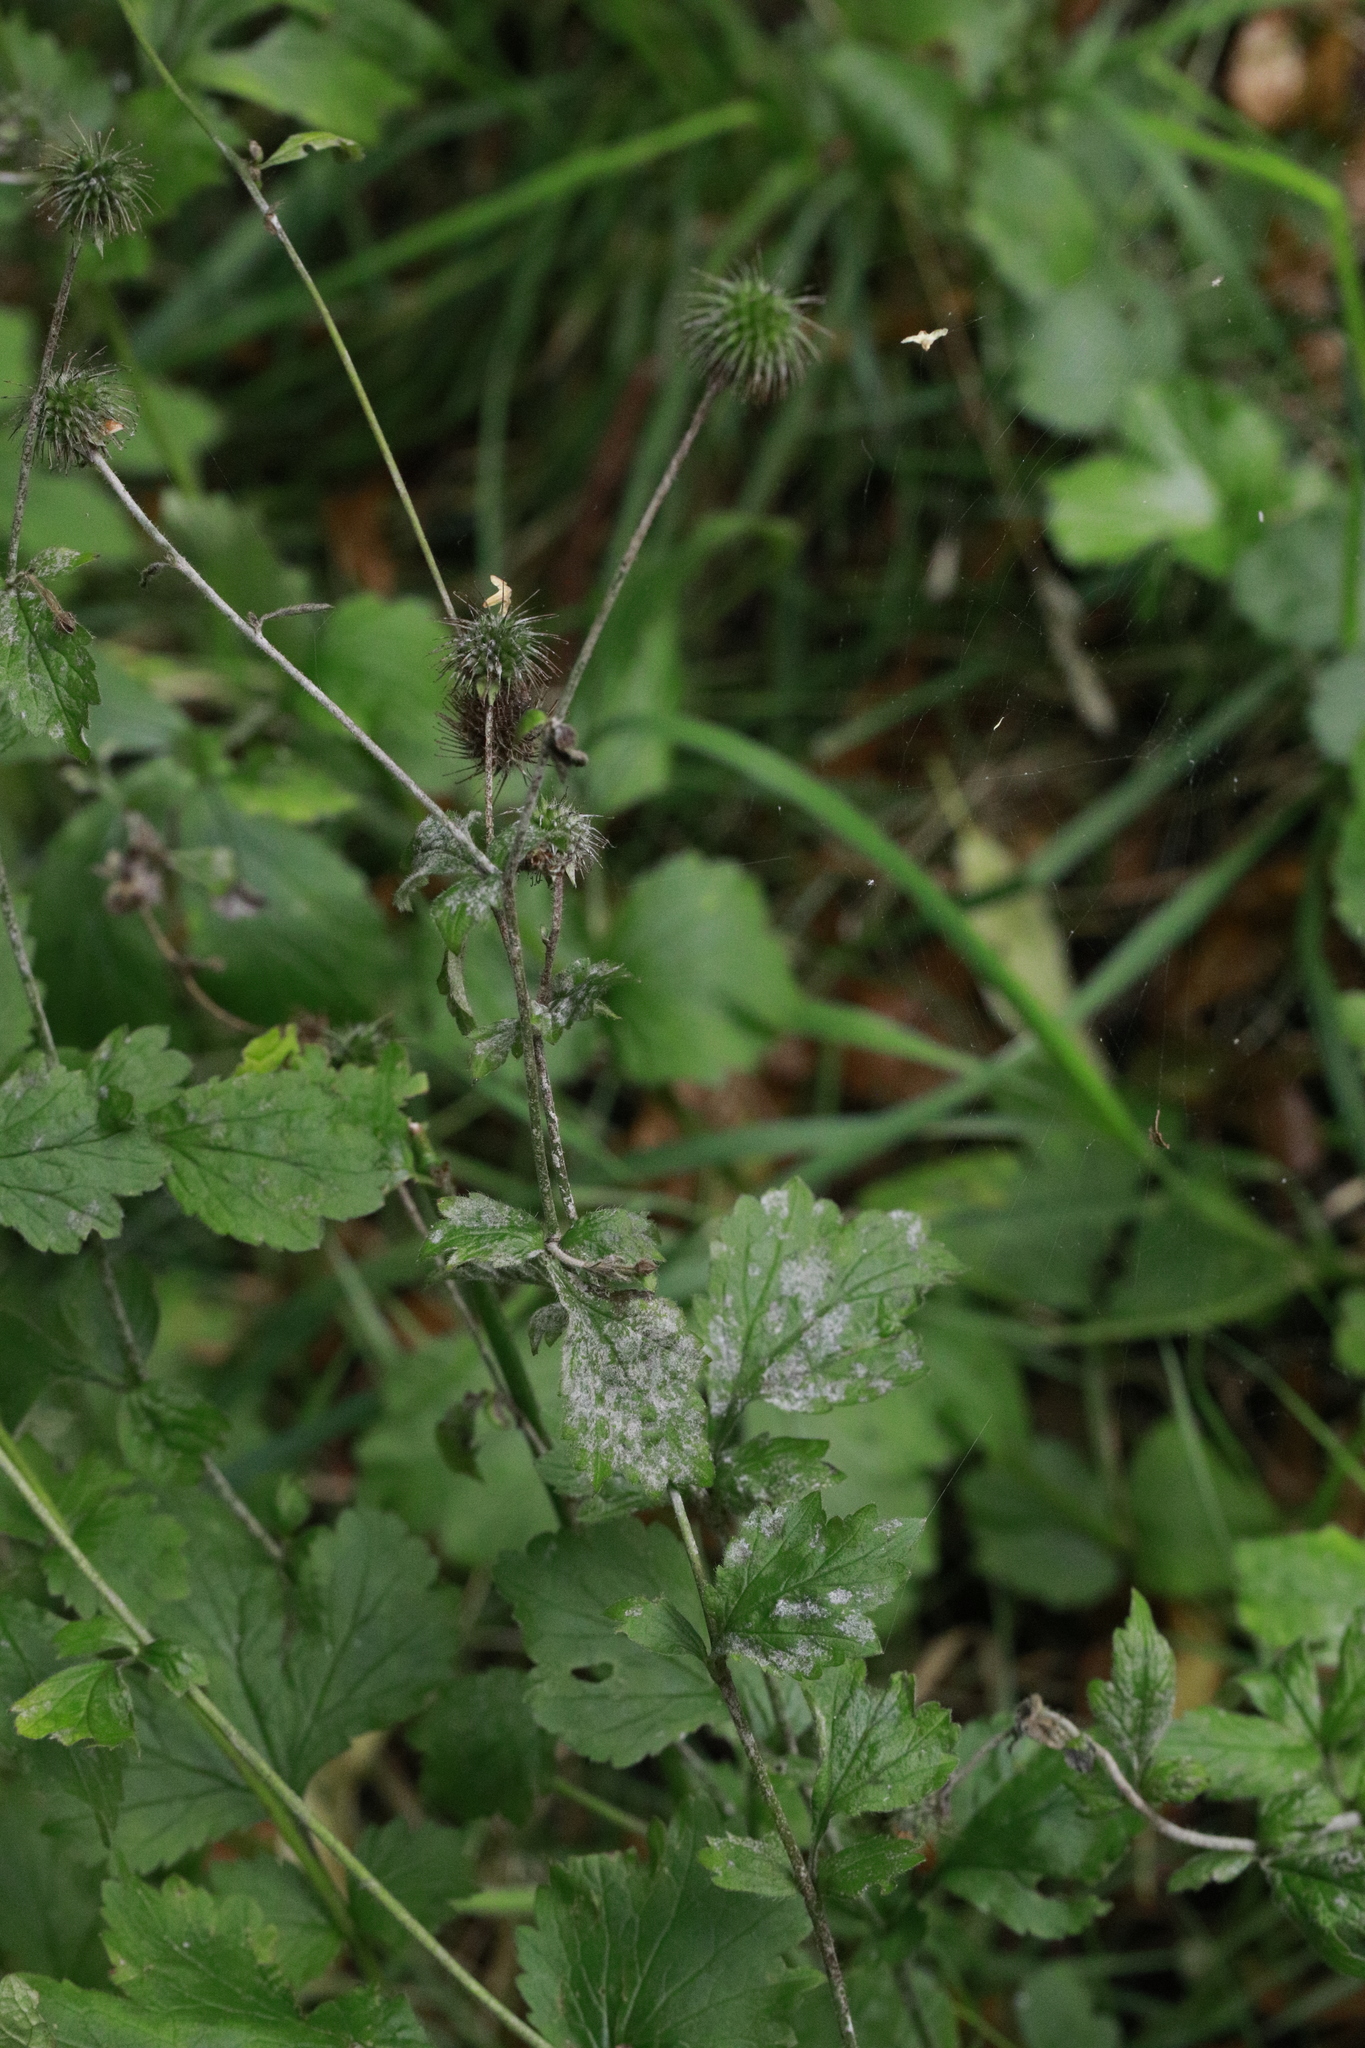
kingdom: Fungi
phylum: Ascomycota
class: Leotiomycetes
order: Helotiales
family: Erysiphaceae
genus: Podosphaera
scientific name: Podosphaera aphanis
